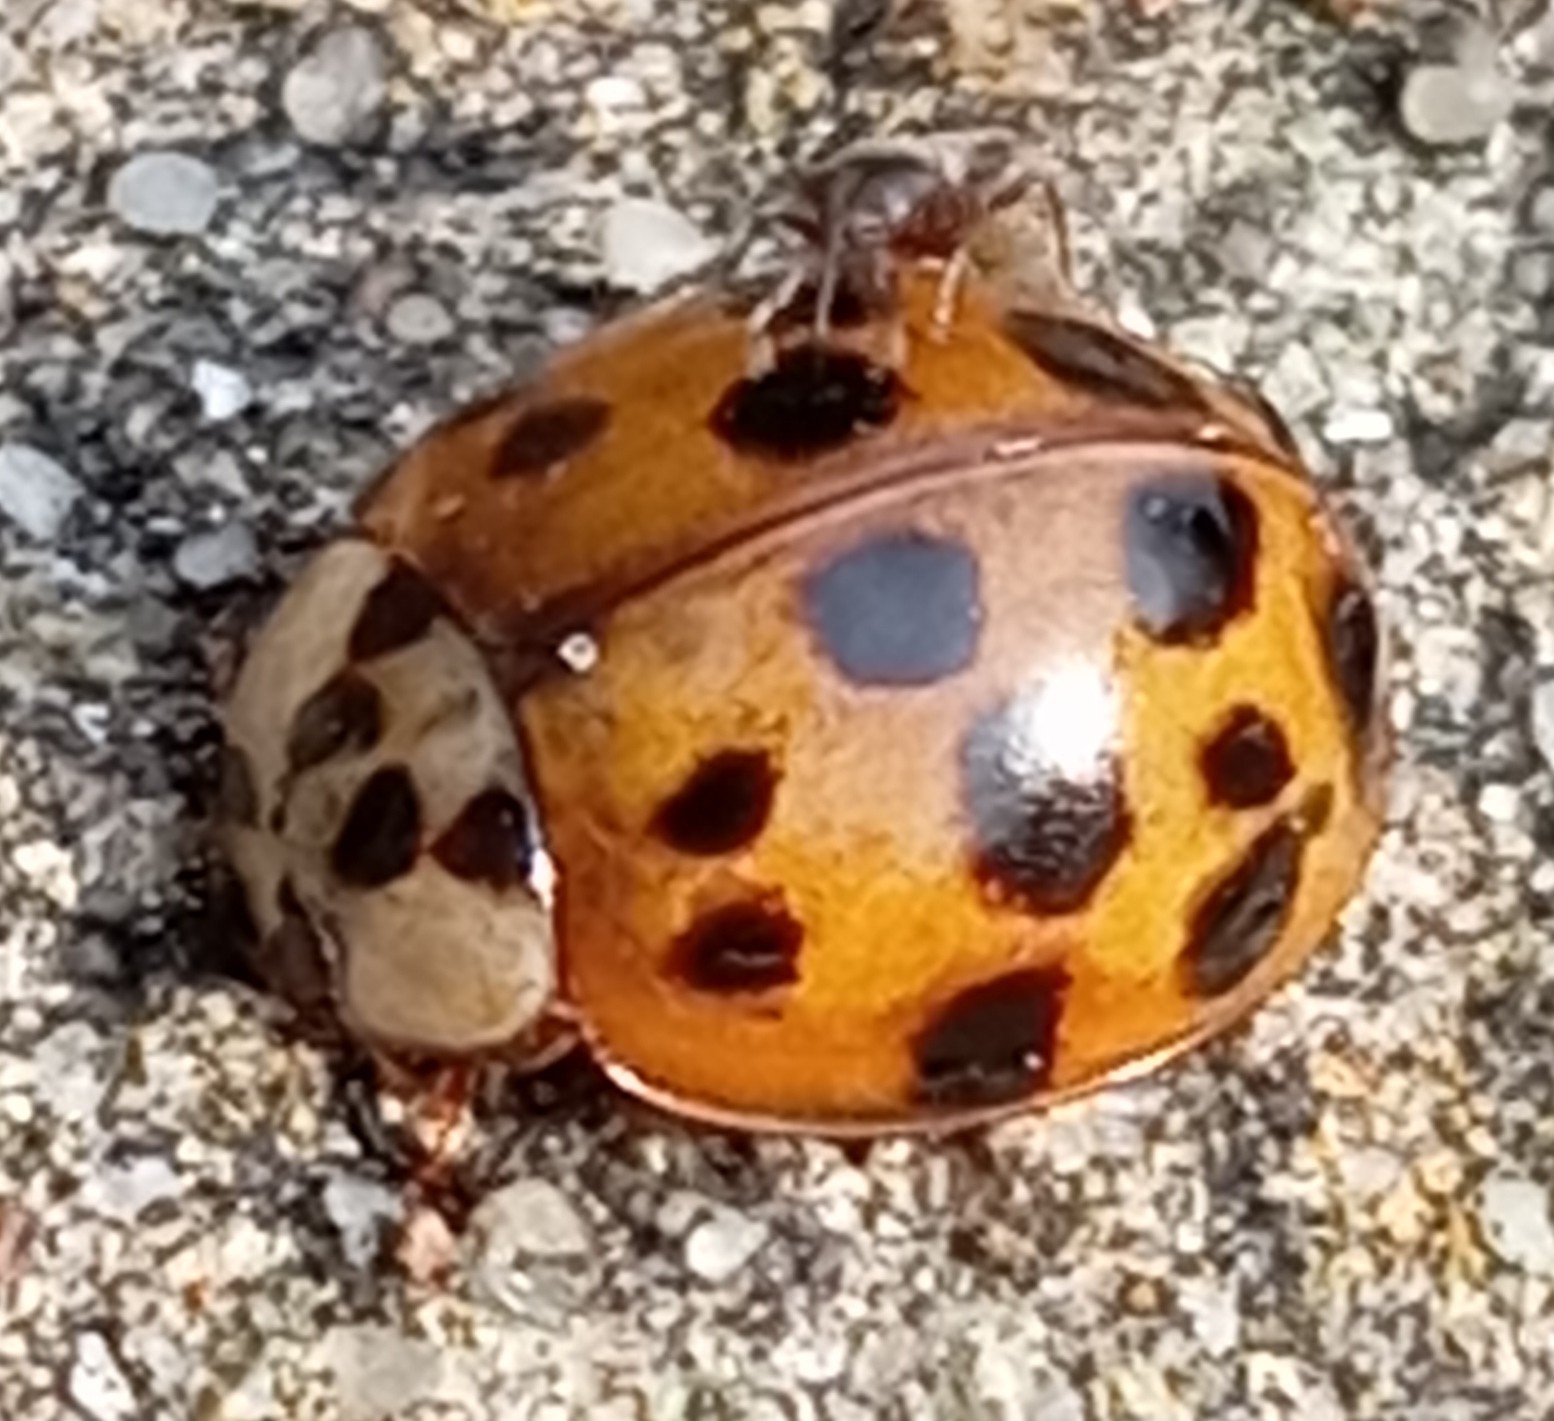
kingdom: Animalia
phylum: Arthropoda
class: Insecta
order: Coleoptera
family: Coccinellidae
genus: Harmonia
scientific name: Harmonia axyridis
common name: Harlequin ladybird
